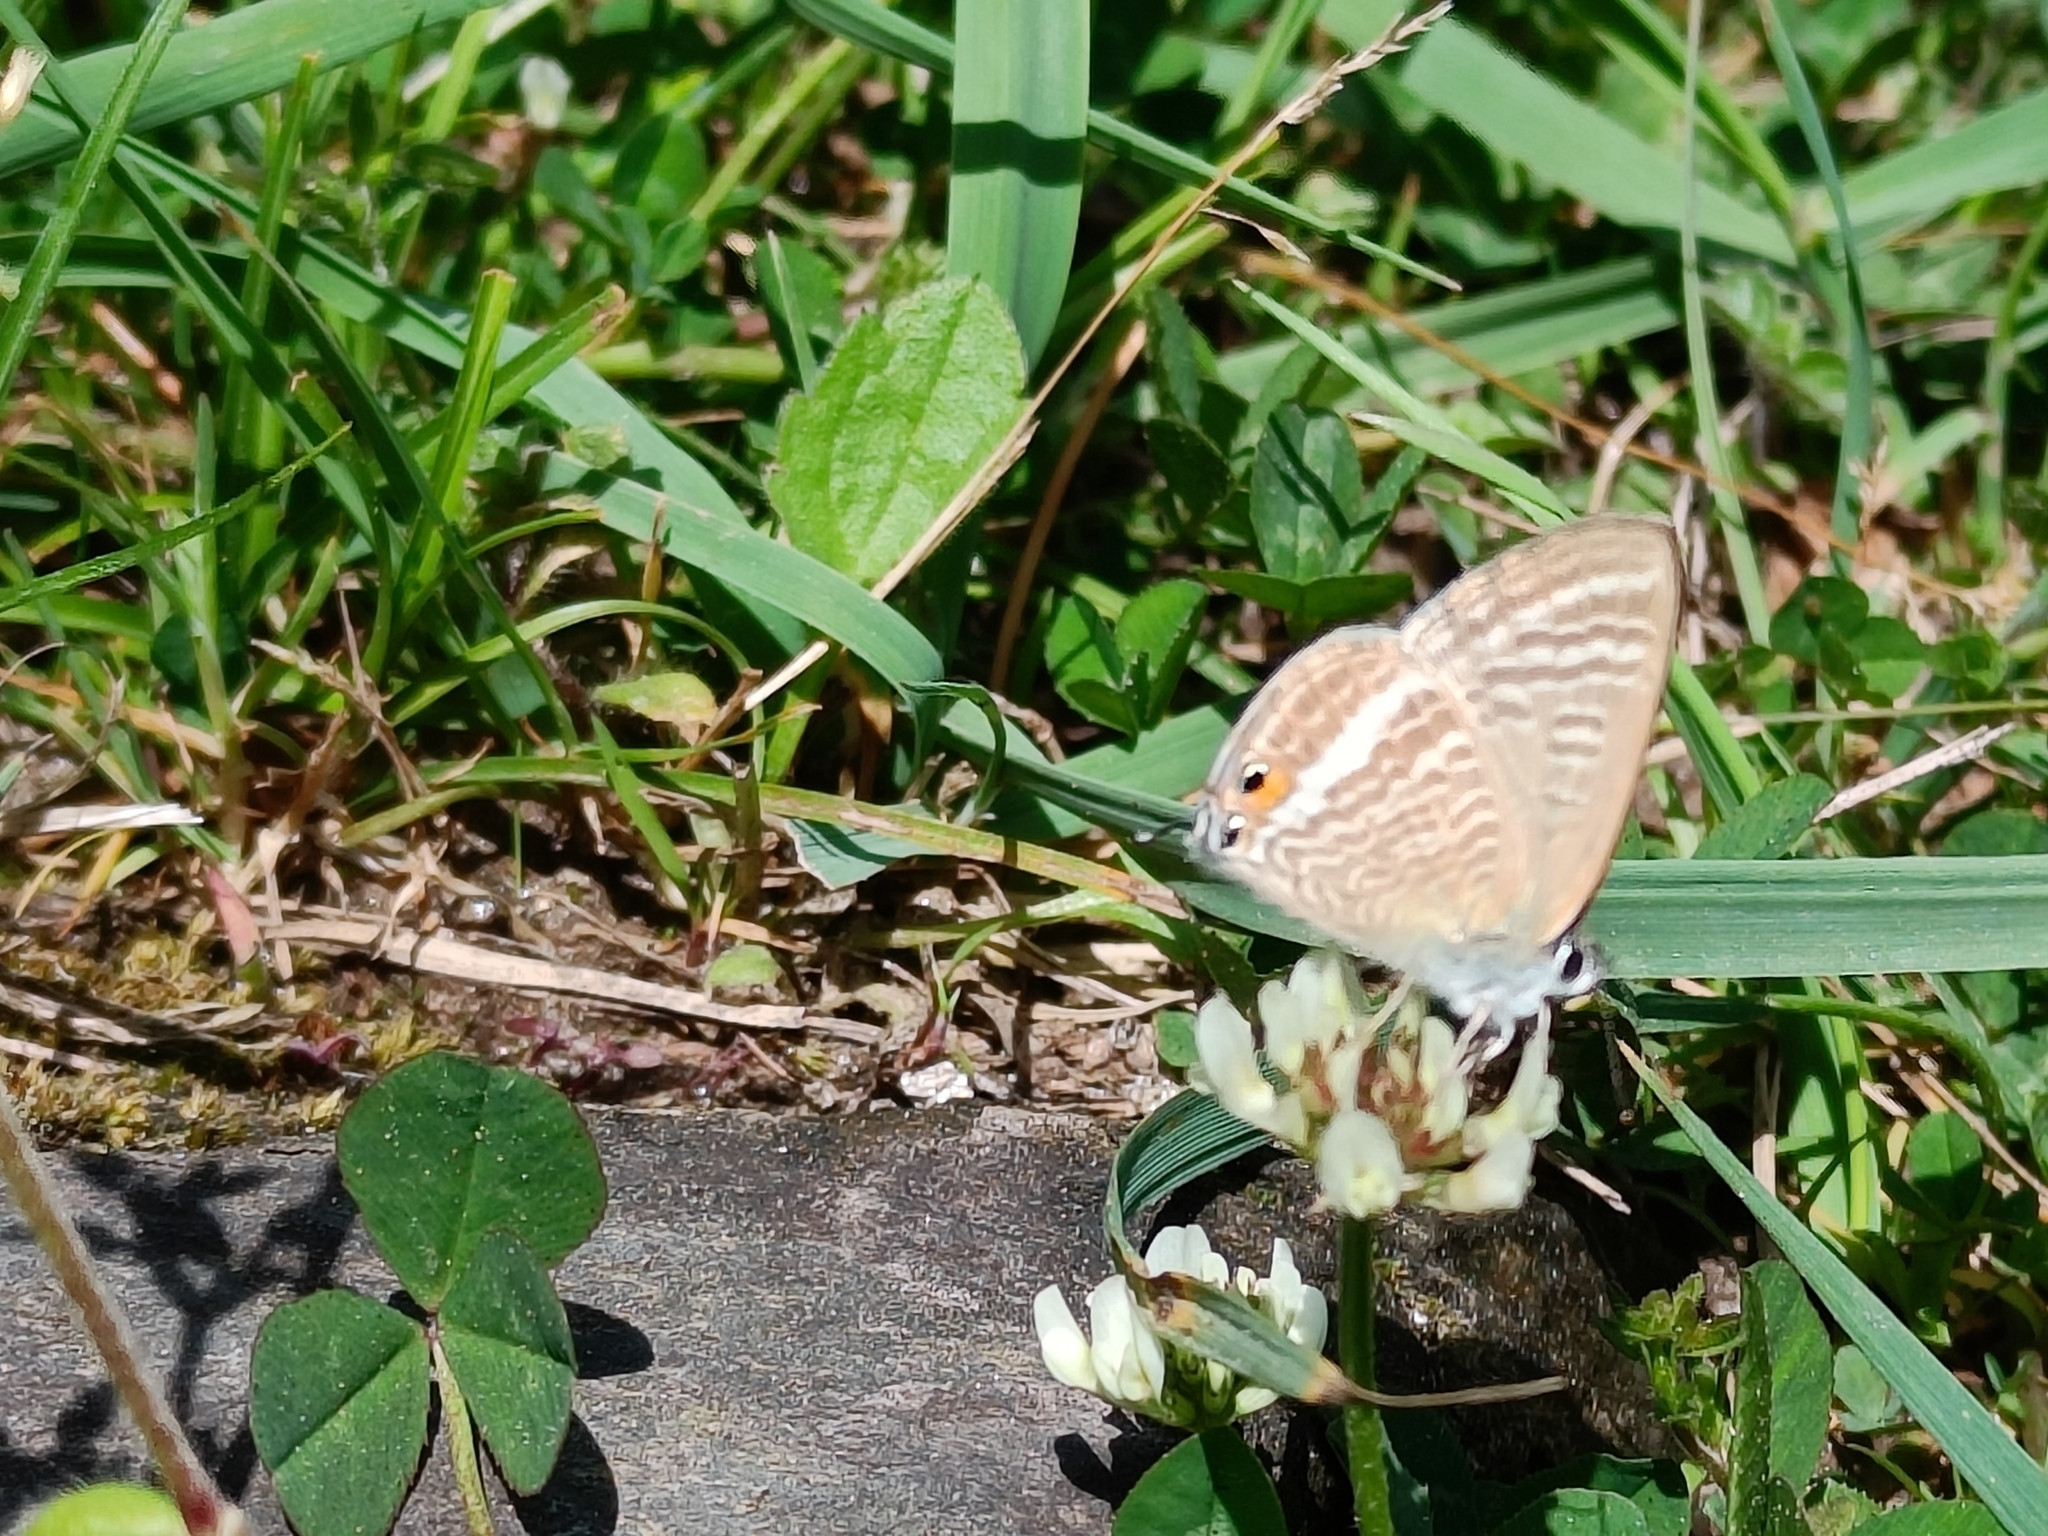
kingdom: Animalia
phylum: Arthropoda
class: Insecta
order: Lepidoptera
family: Lycaenidae
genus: Lampides
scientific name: Lampides boeticus
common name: Long-tailed blue
